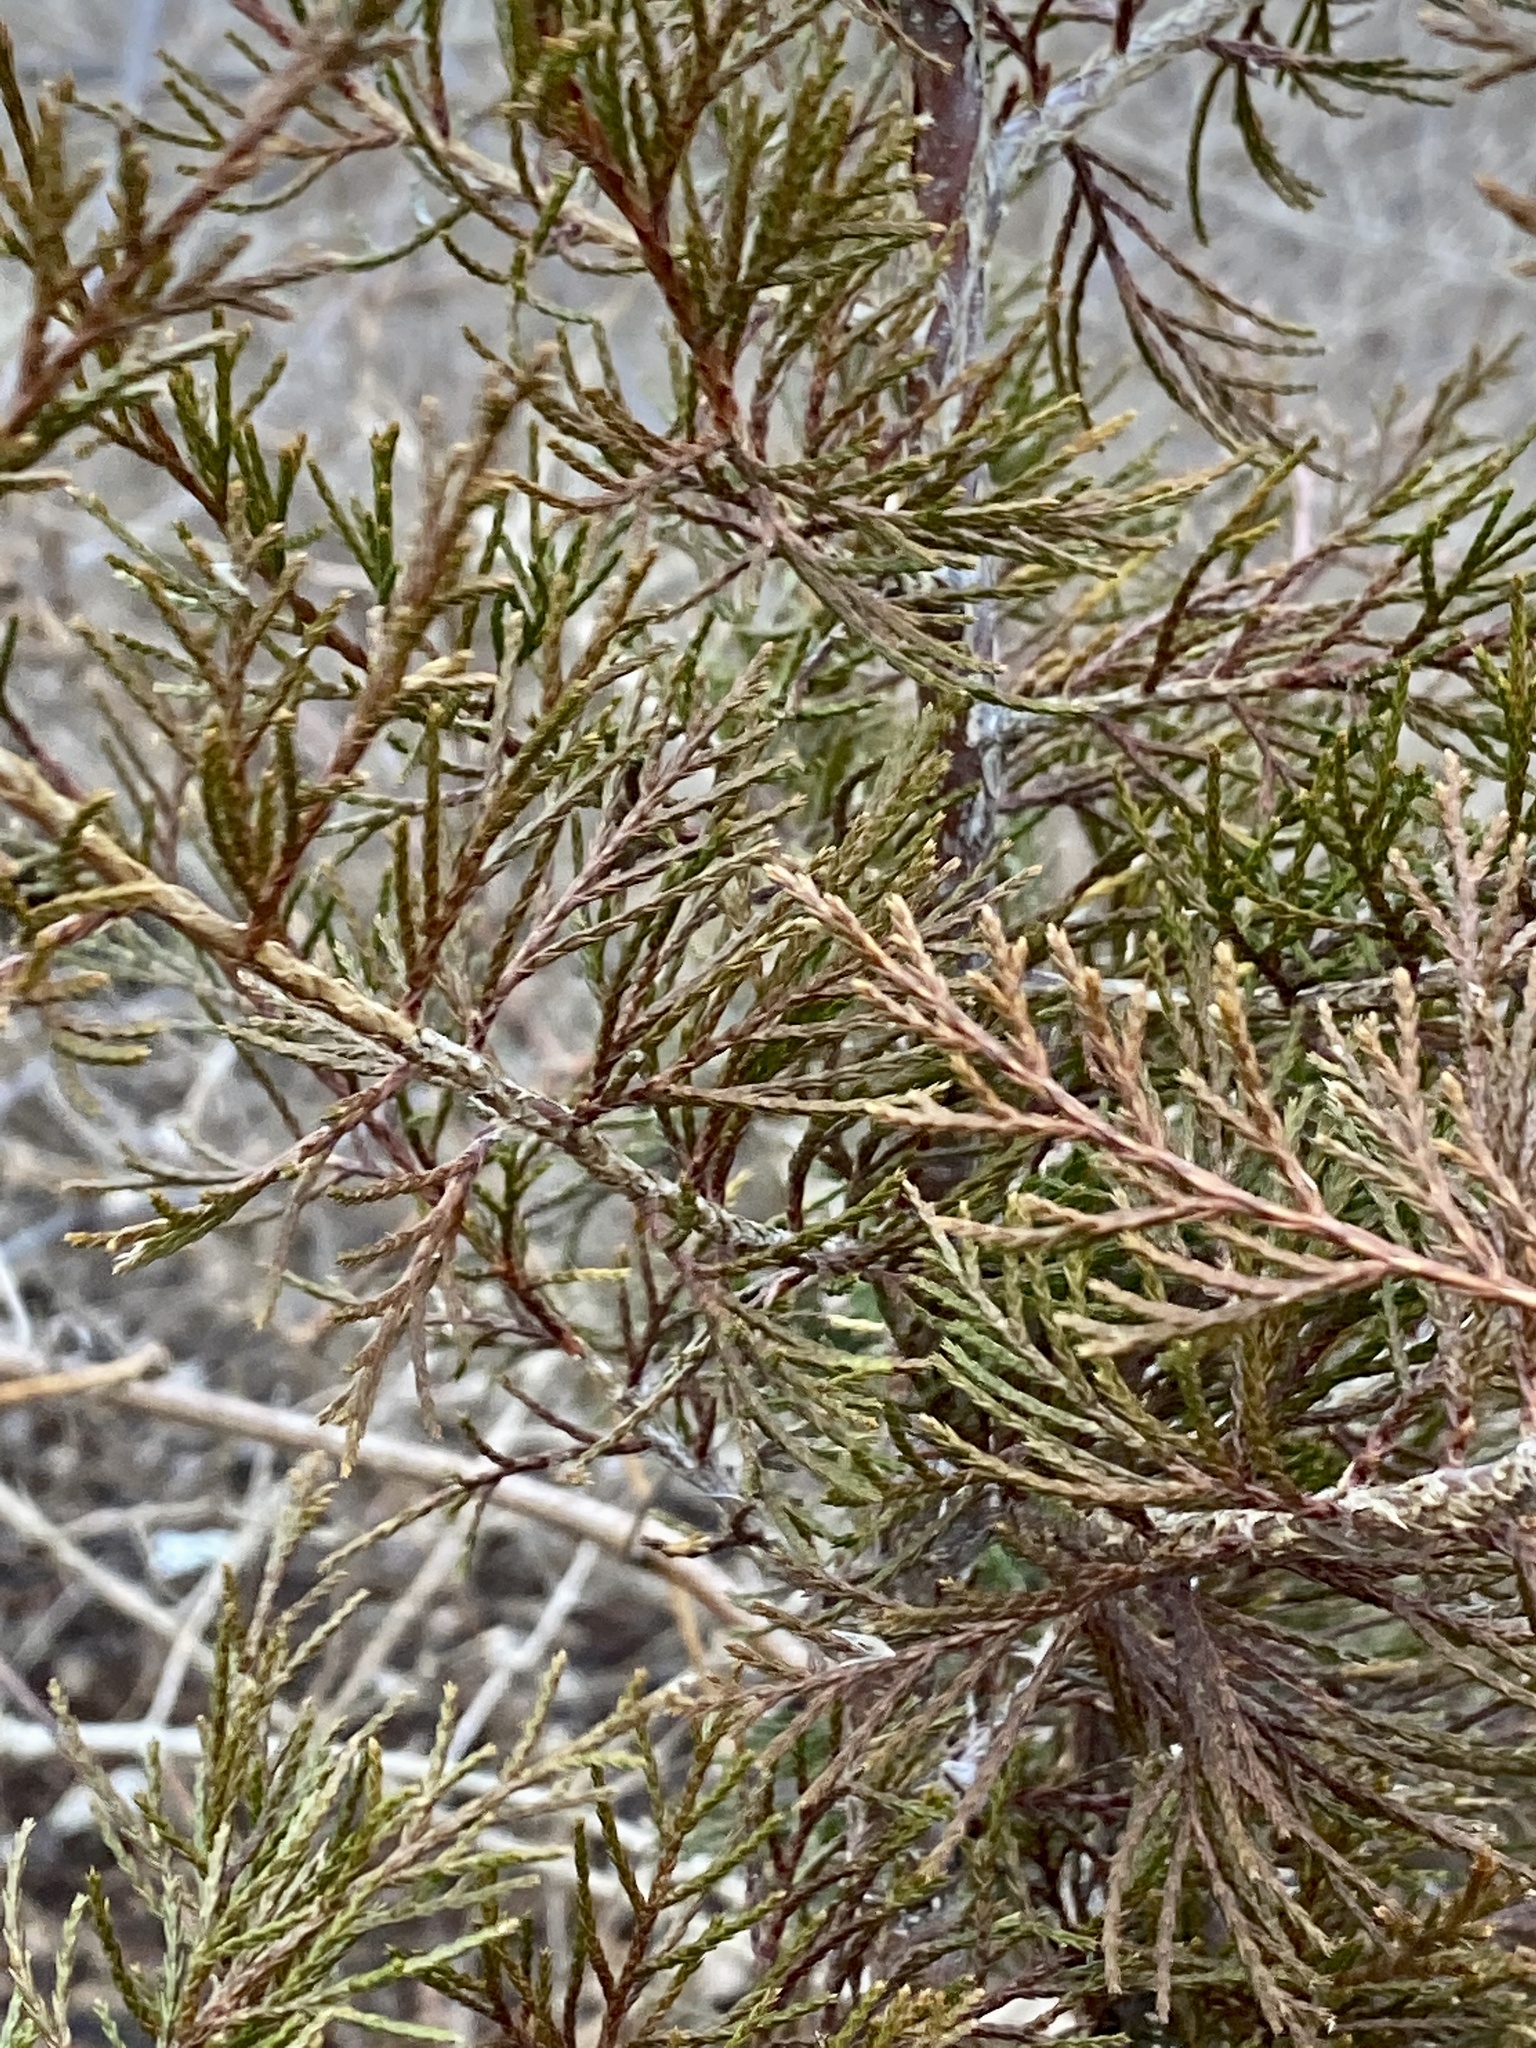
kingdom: Plantae
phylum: Tracheophyta
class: Pinopsida
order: Pinales
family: Cupressaceae
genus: Juniperus
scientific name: Juniperus virginiana
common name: Red juniper
